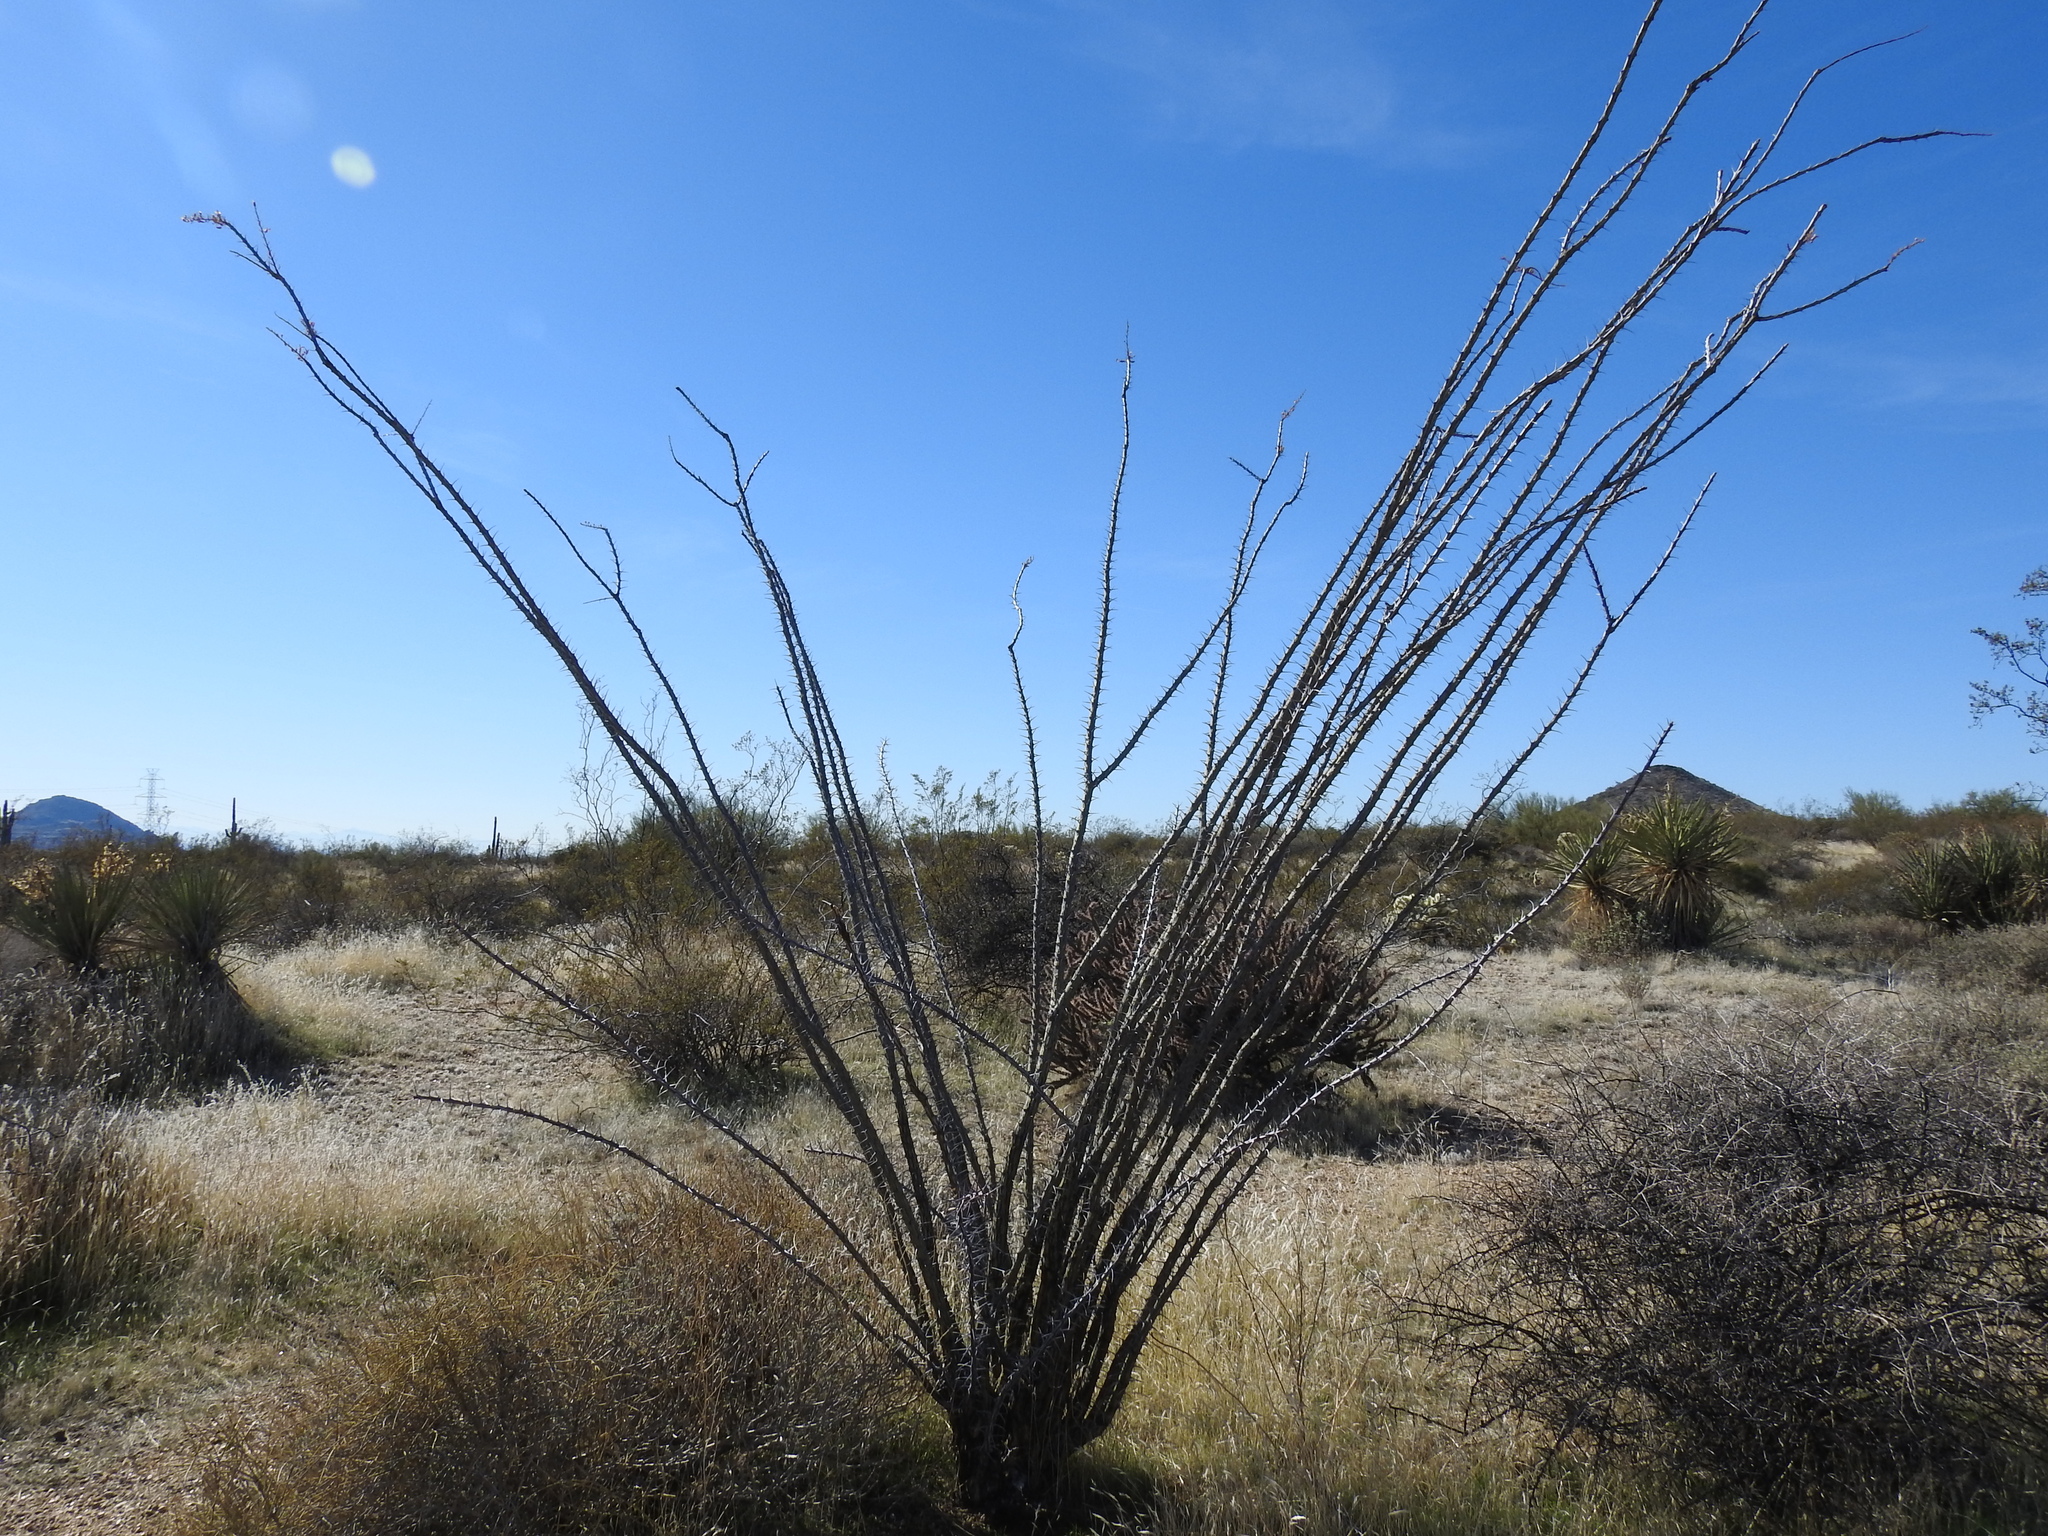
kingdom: Plantae
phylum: Tracheophyta
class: Magnoliopsida
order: Ericales
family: Fouquieriaceae
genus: Fouquieria
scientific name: Fouquieria splendens
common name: Vine-cactus
